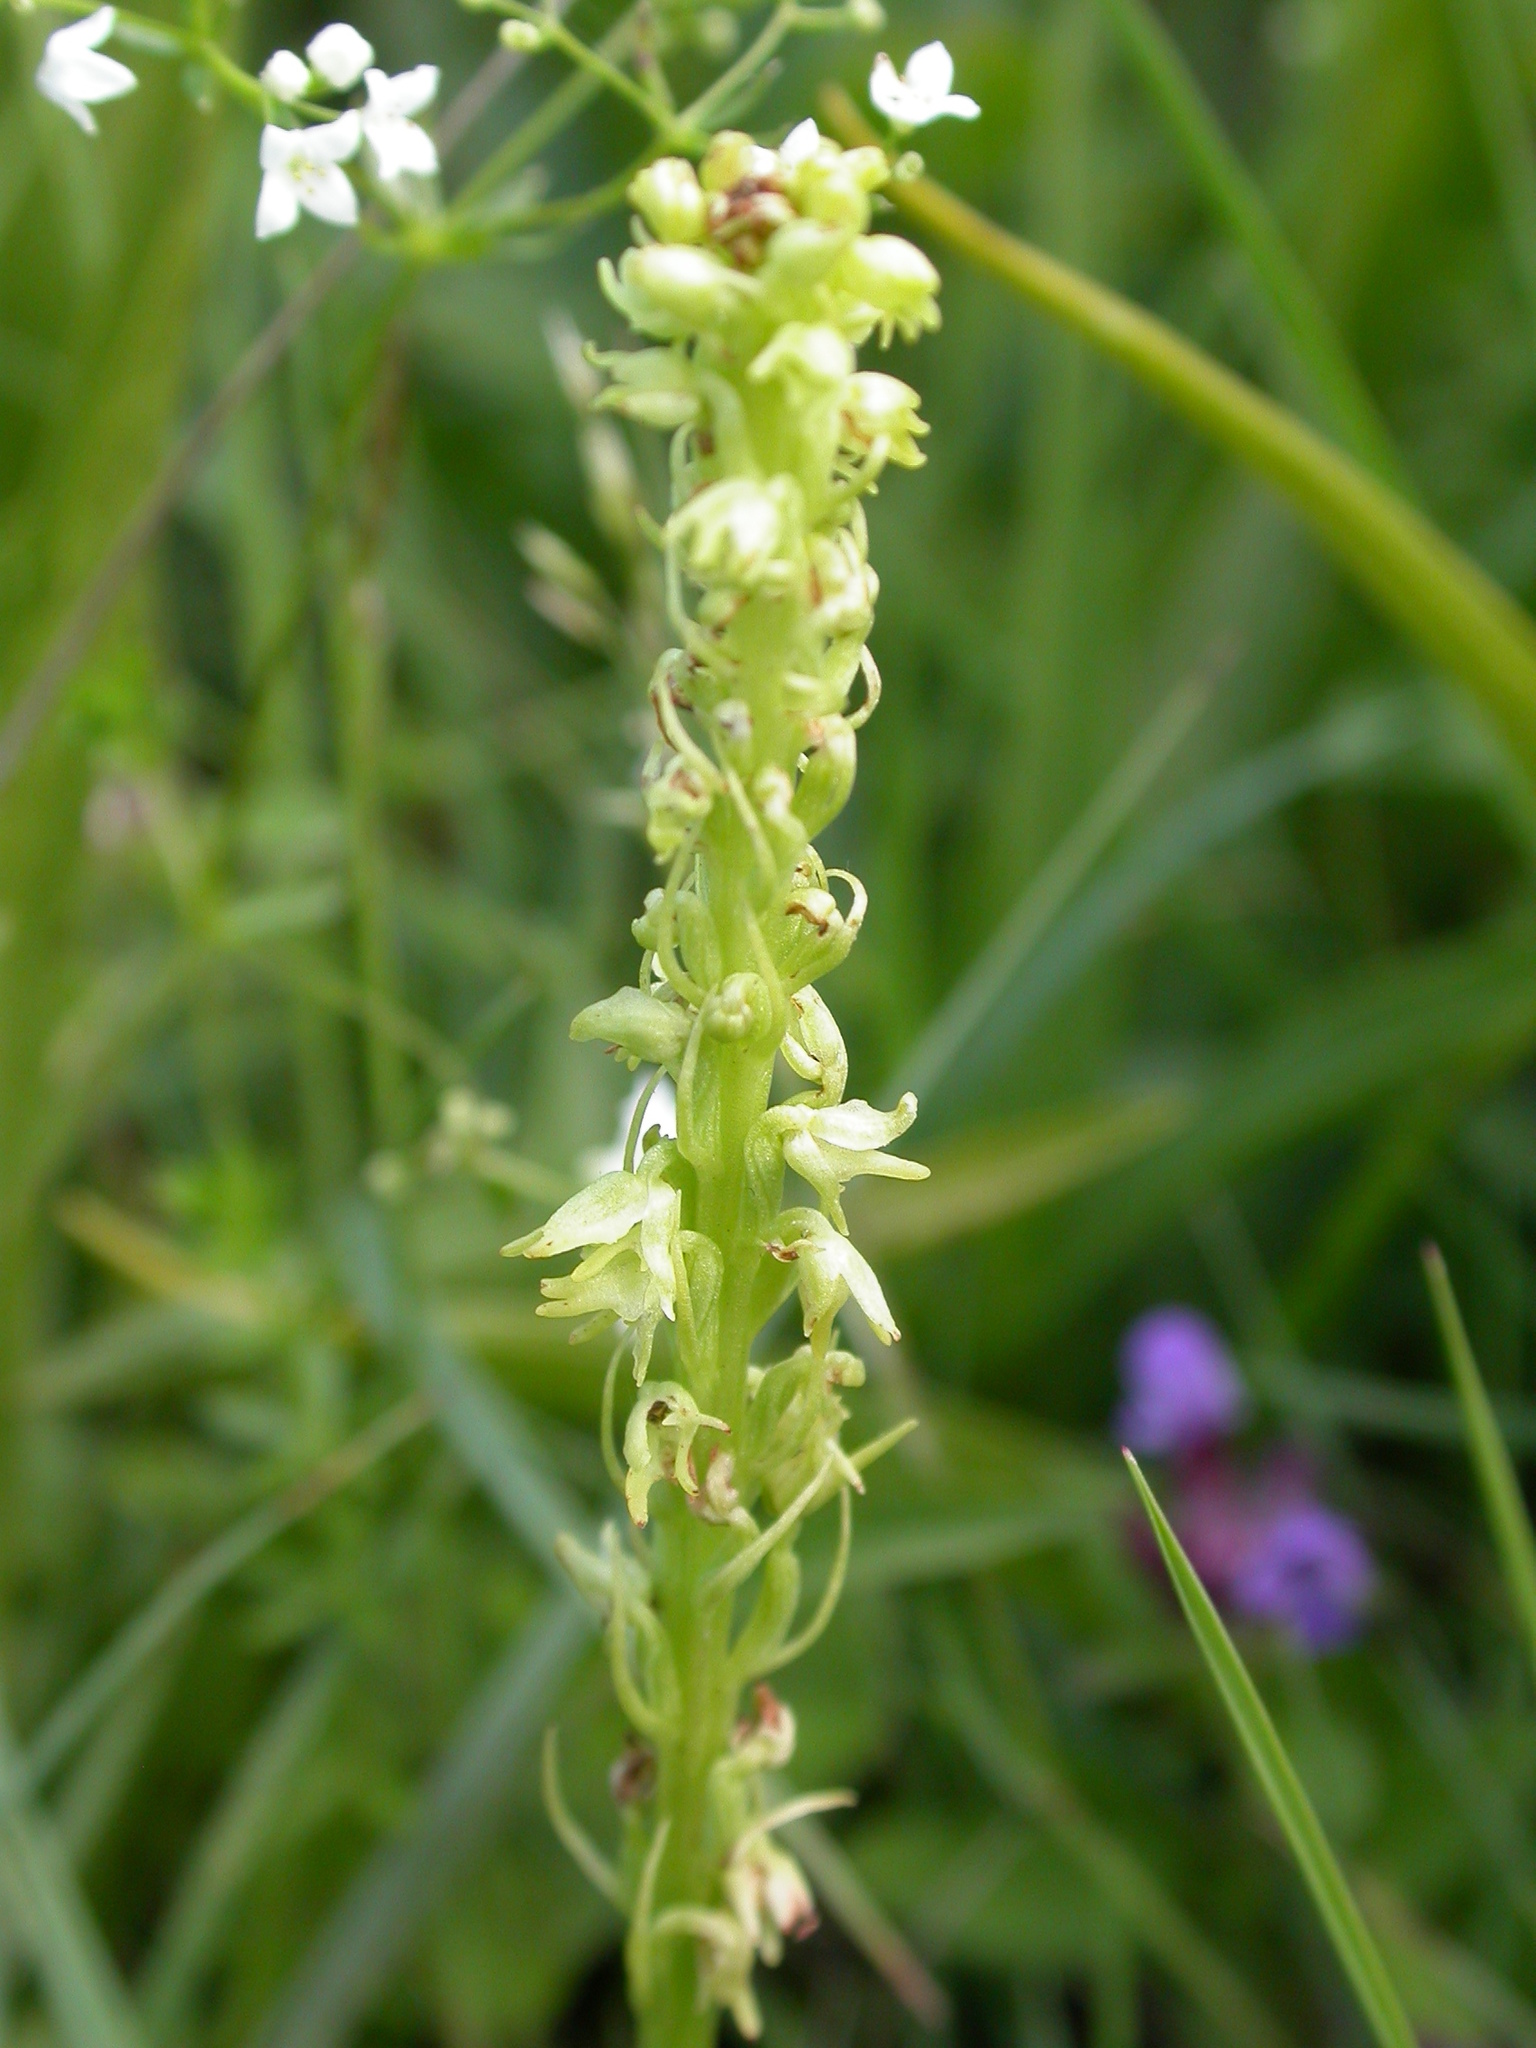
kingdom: Plantae
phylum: Tracheophyta
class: Liliopsida
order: Asparagales
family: Orchidaceae
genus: Herminium
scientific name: Herminium monorchis
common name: Musk orchid
